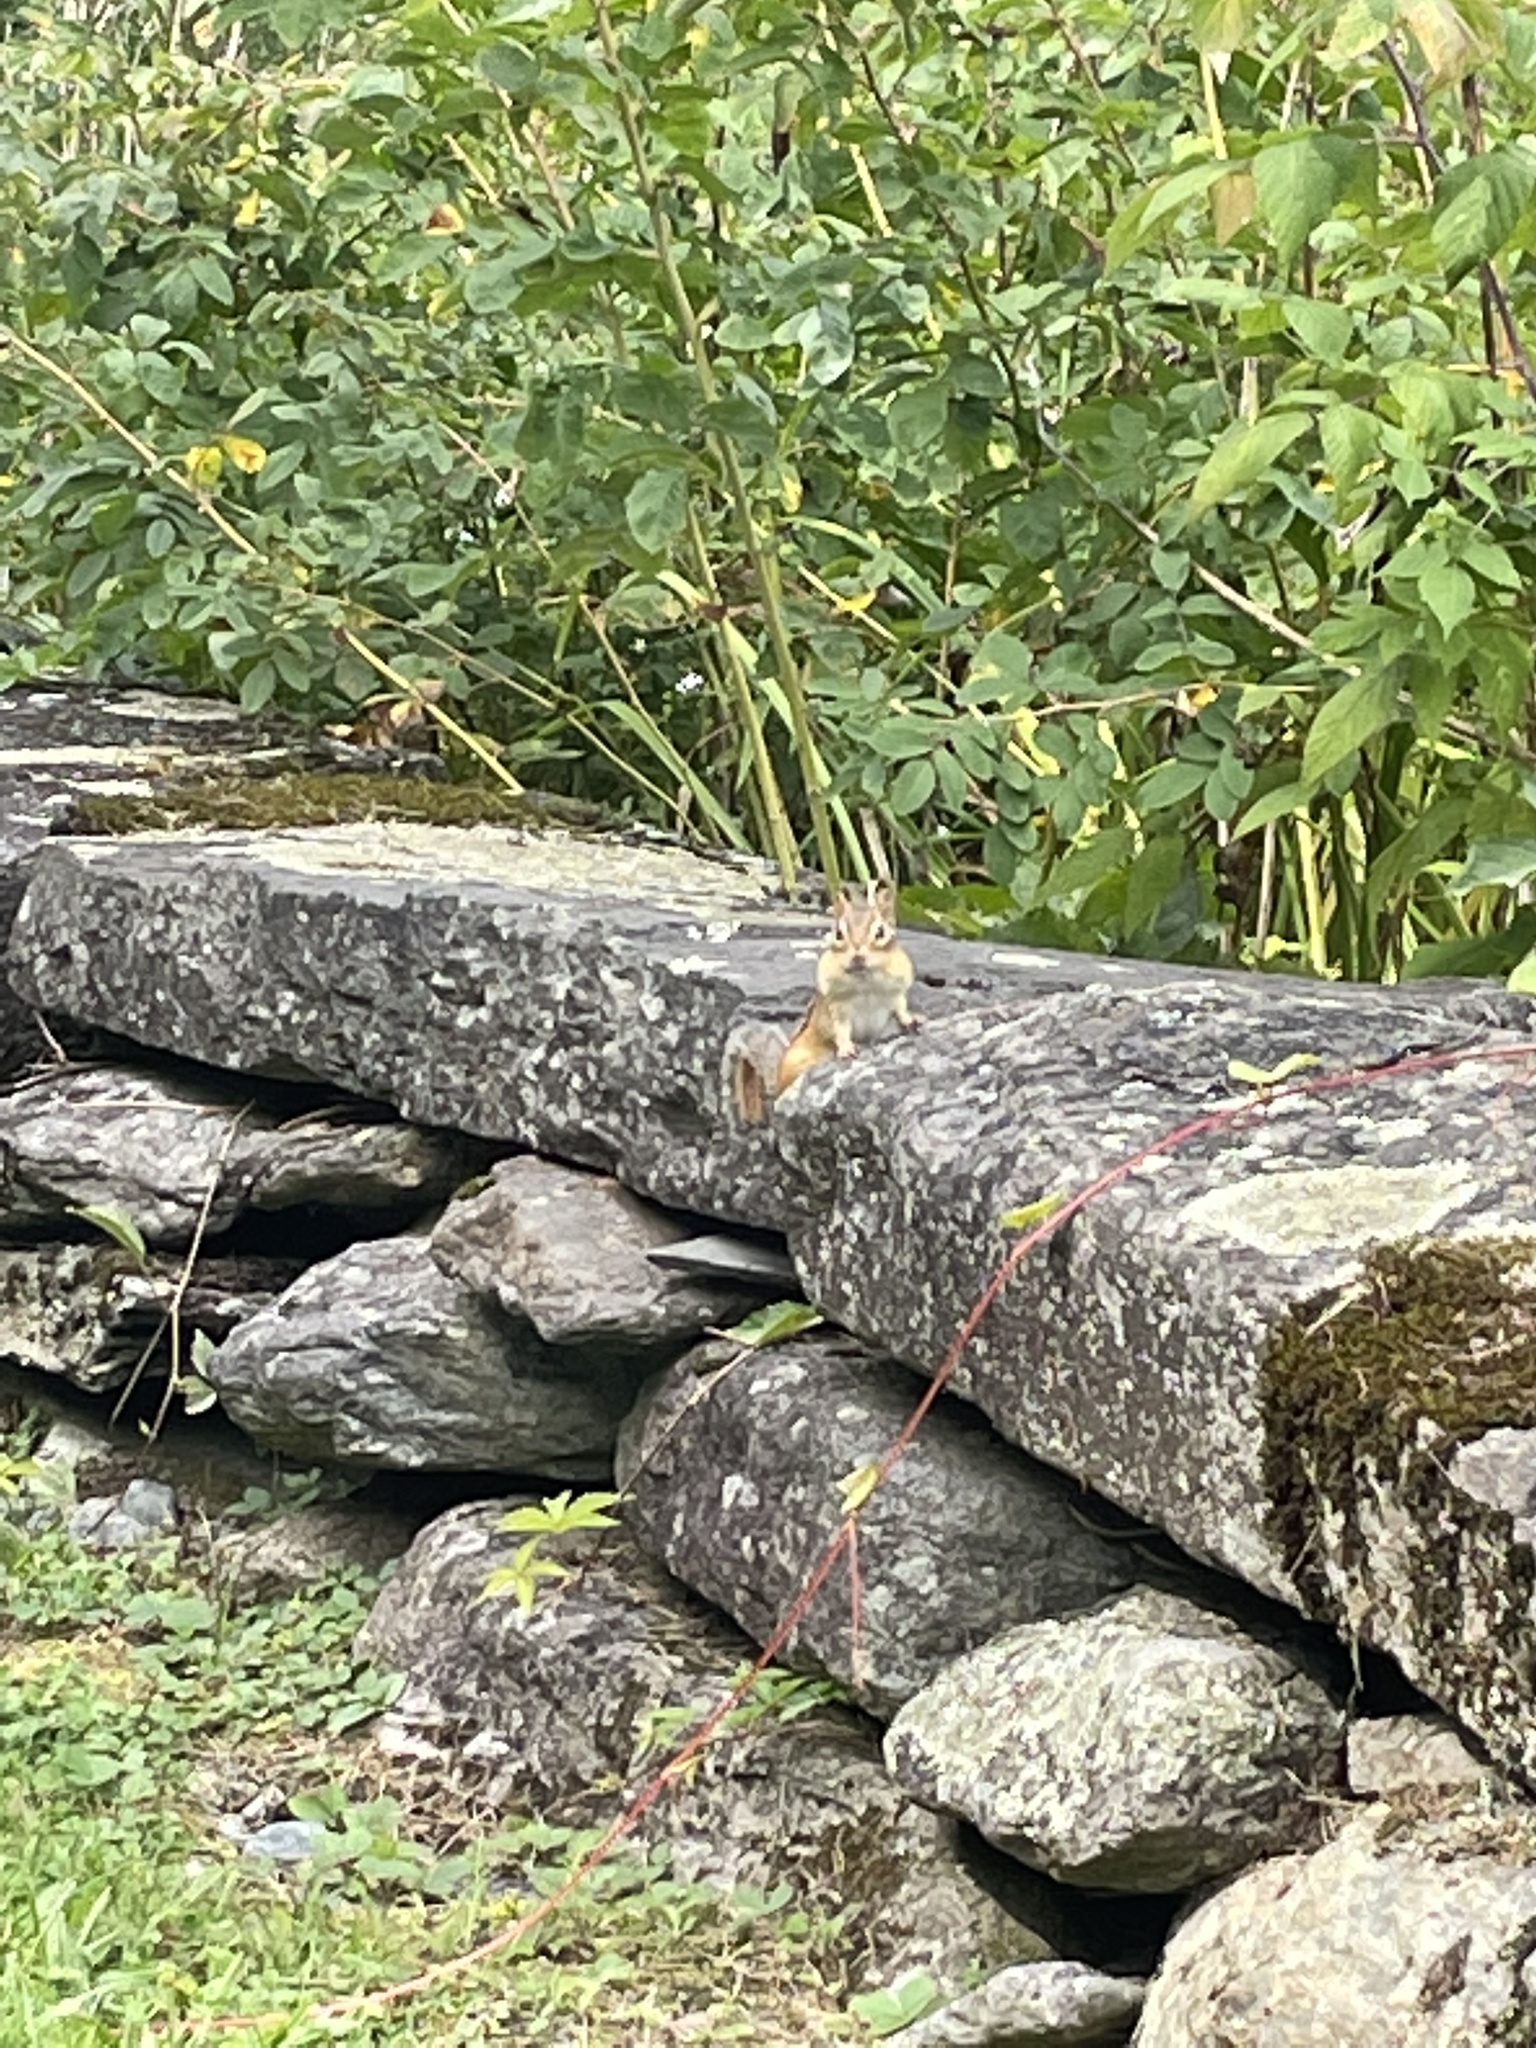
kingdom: Animalia
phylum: Chordata
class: Mammalia
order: Rodentia
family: Sciuridae
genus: Tamias
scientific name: Tamias striatus
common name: Eastern chipmunk
